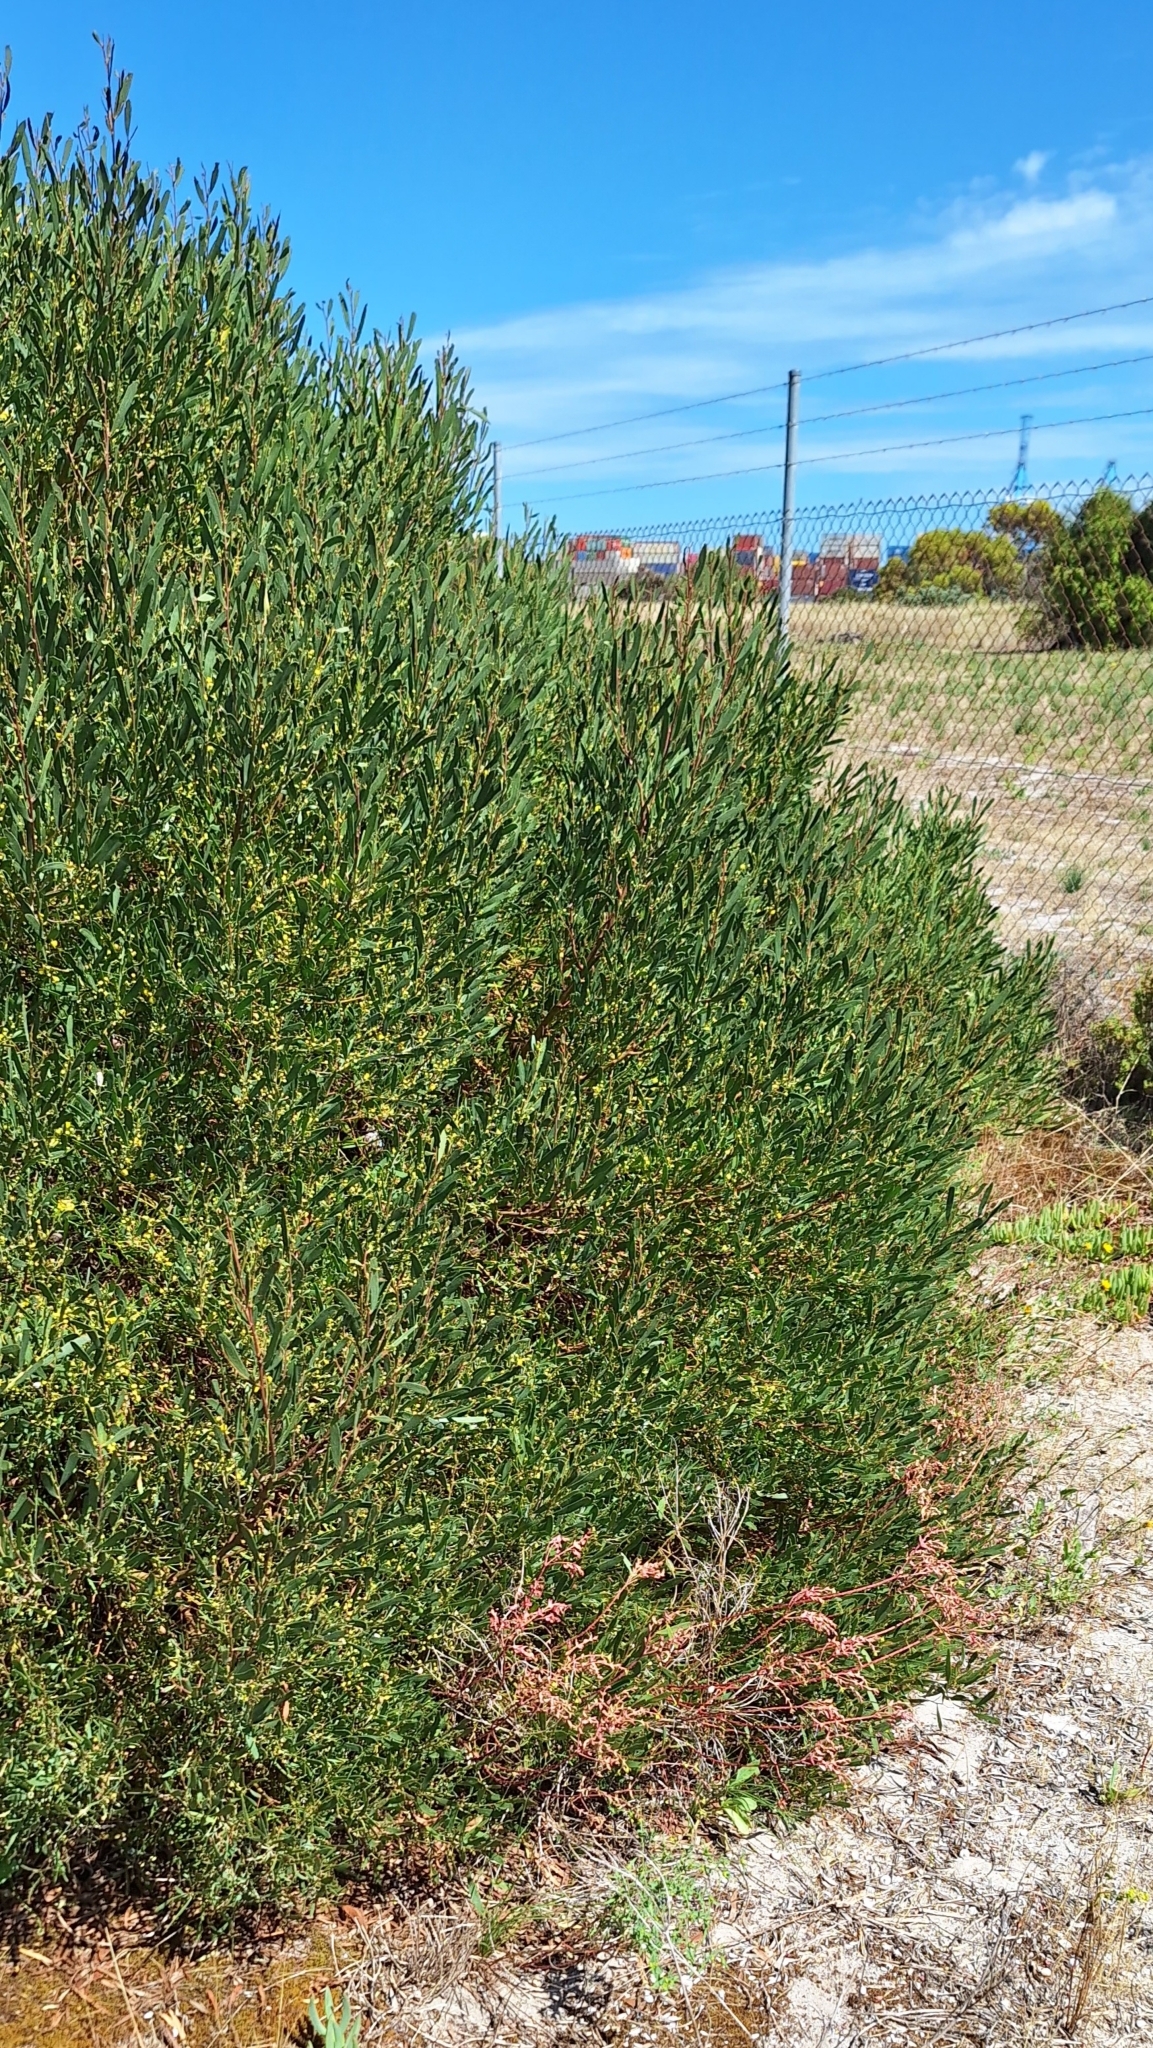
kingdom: Plantae
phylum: Tracheophyta
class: Magnoliopsida
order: Fabales
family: Fabaceae
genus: Acacia
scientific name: Acacia cyclops
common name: Coastal wattle
